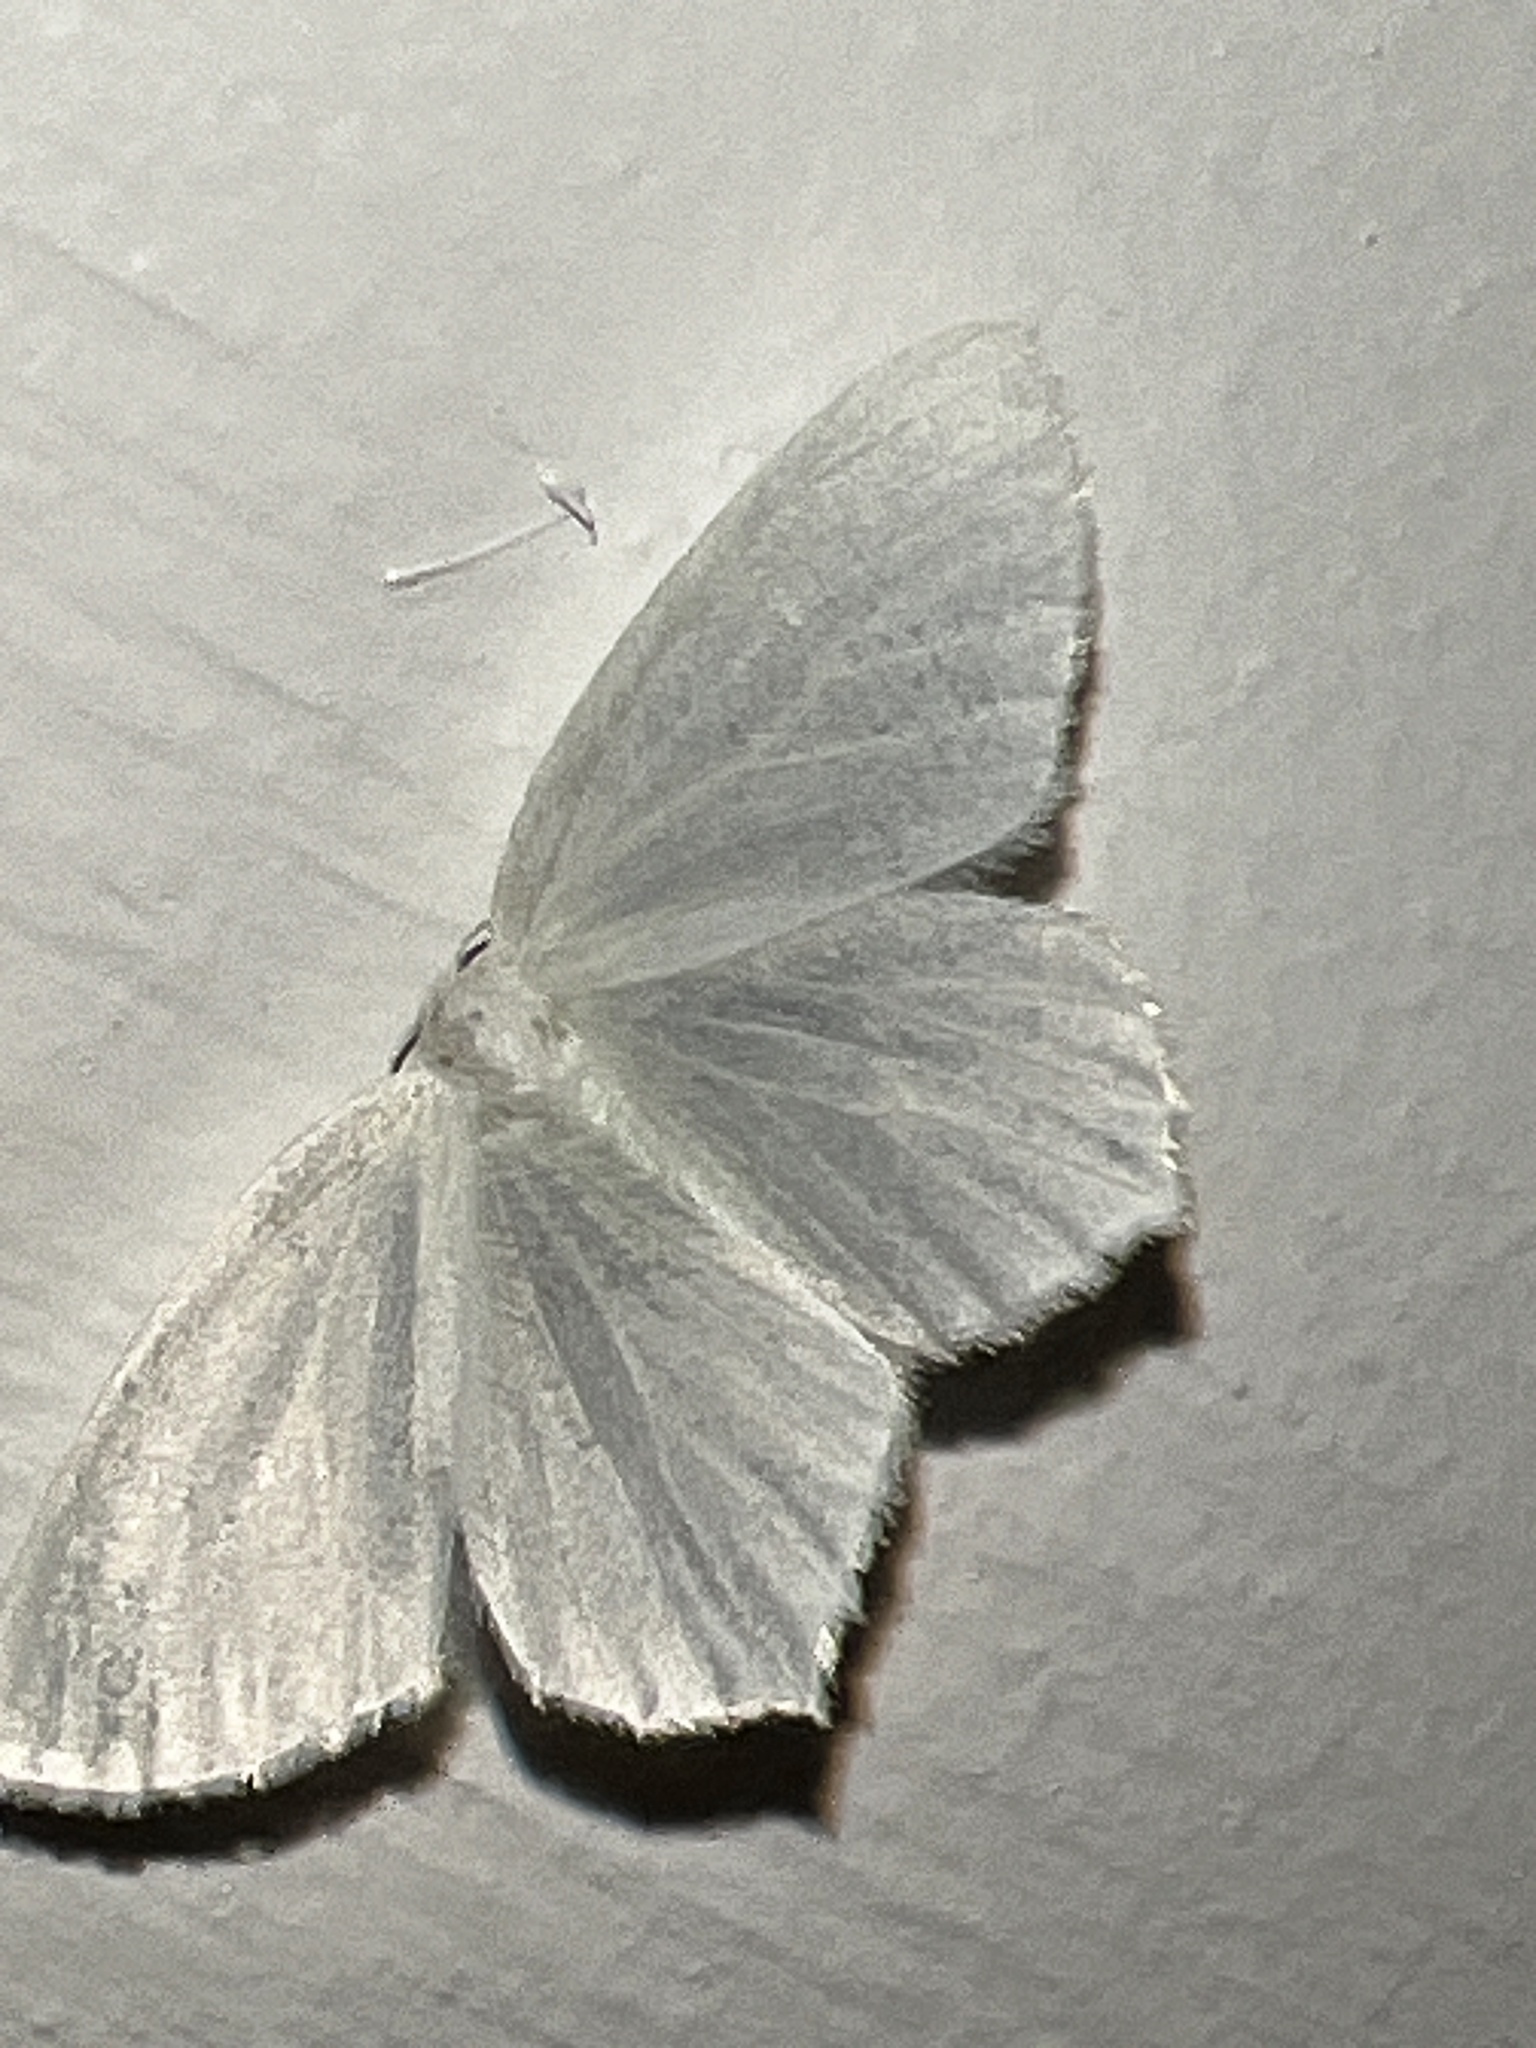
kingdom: Animalia
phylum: Arthropoda
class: Insecta
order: Lepidoptera
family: Geometridae
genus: Eugonobapta
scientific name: Eugonobapta nivosaria
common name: Snowy geometer
